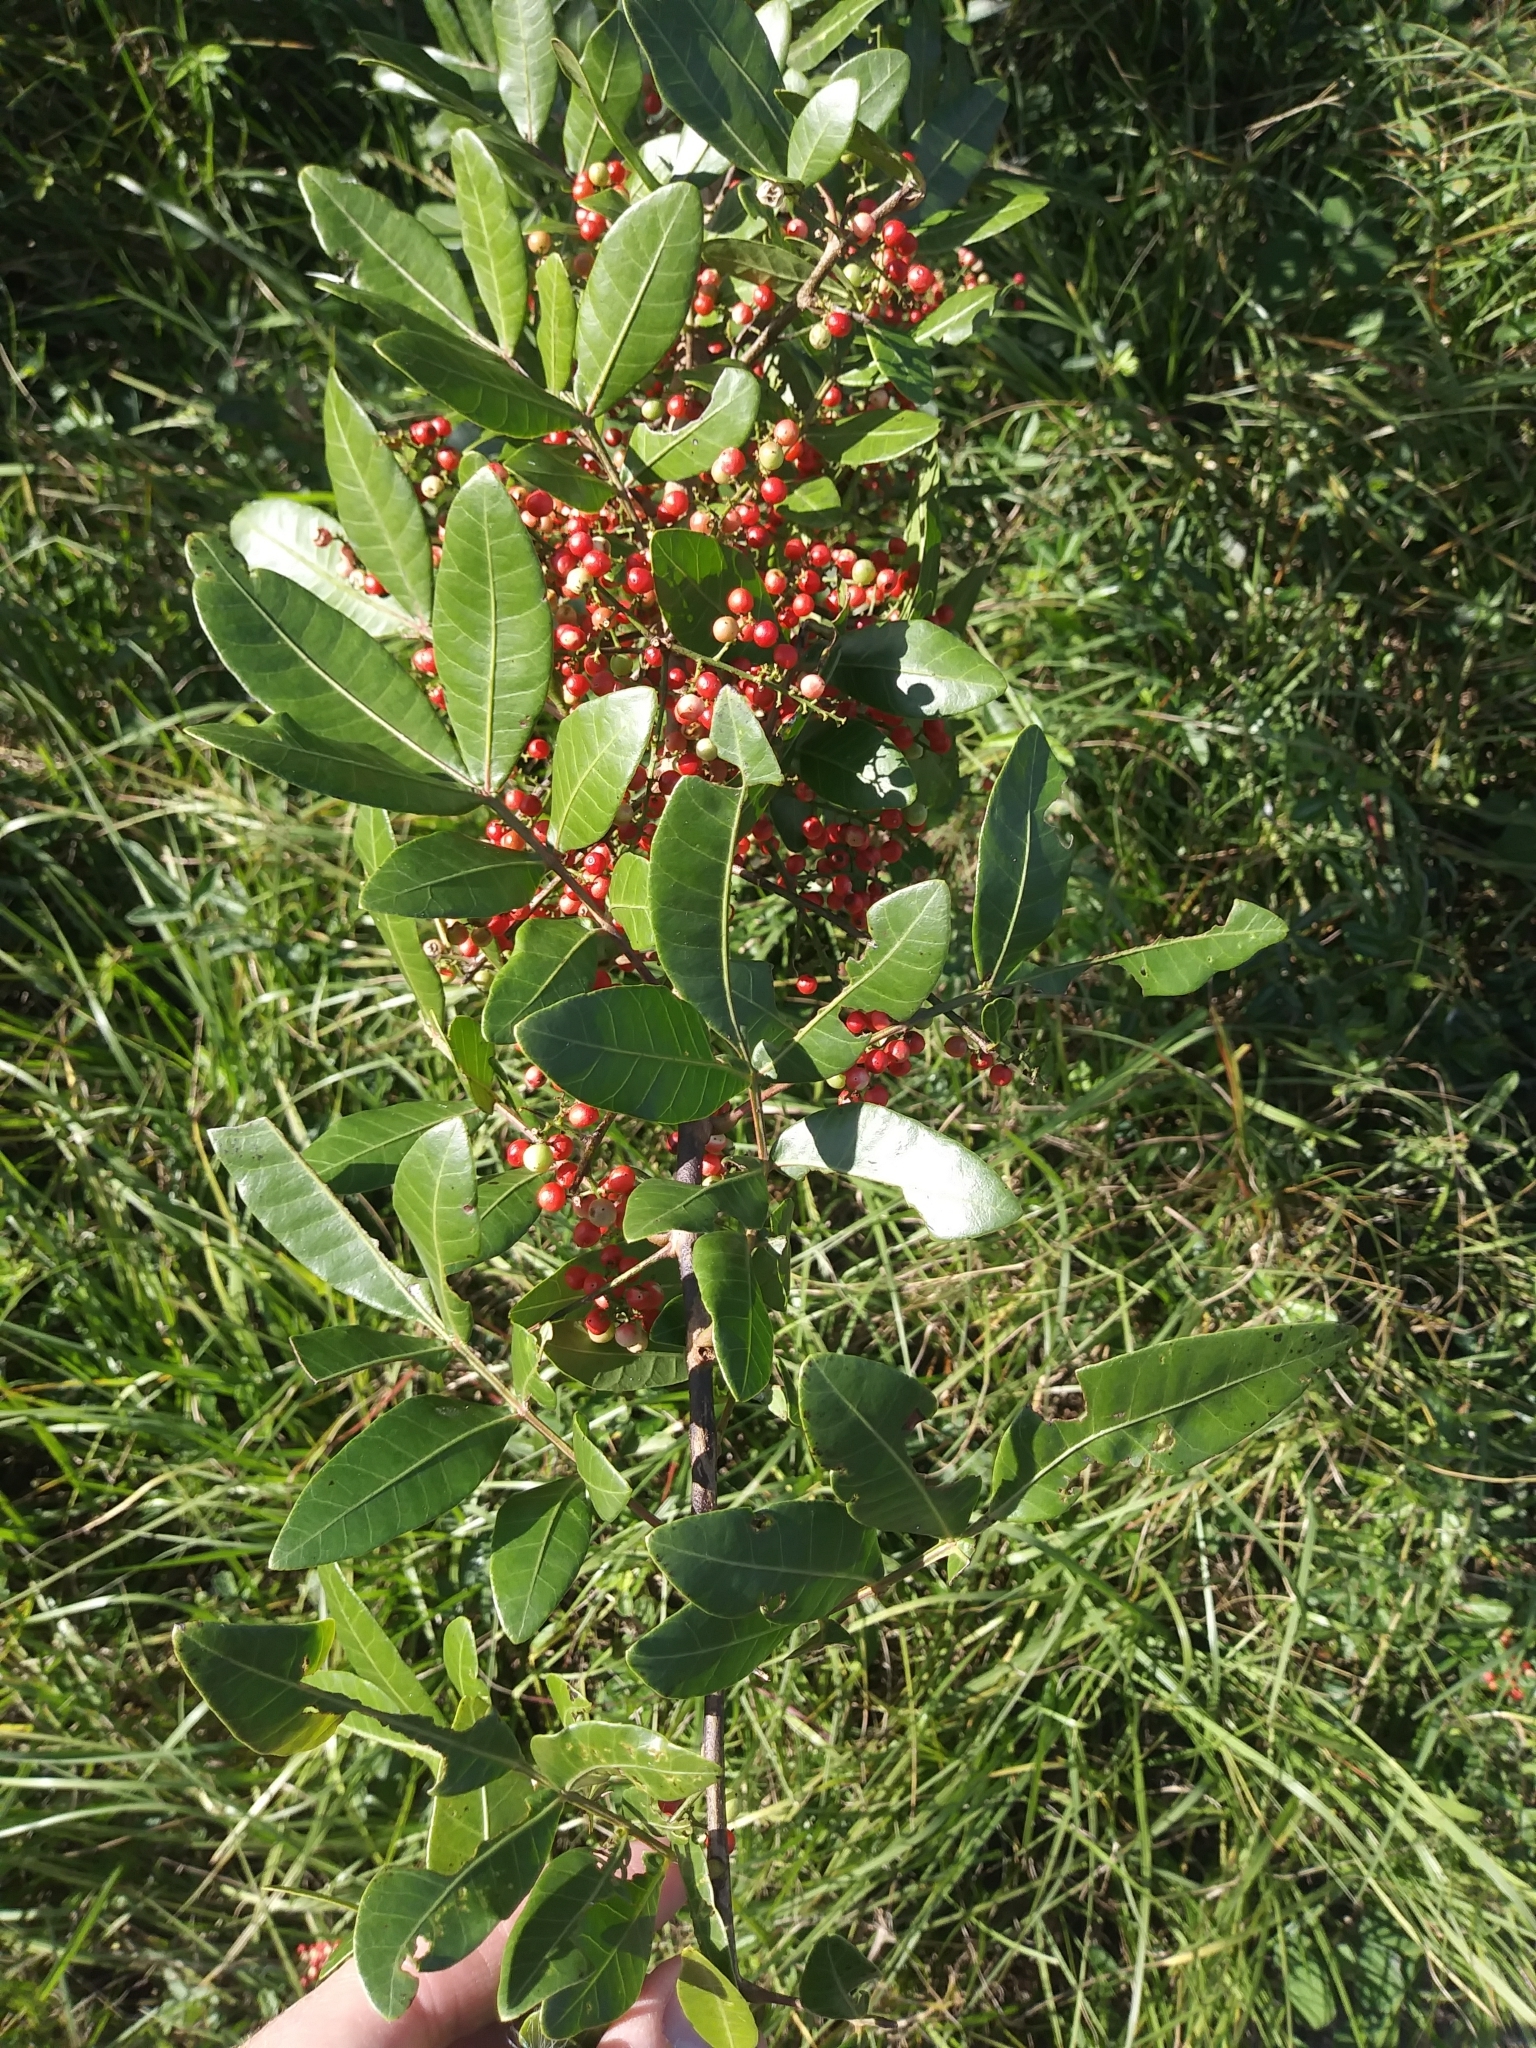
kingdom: Plantae
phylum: Tracheophyta
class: Magnoliopsida
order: Sapindales
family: Anacardiaceae
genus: Schinus
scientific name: Schinus terebinthifolia
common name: Brazilian peppertree
